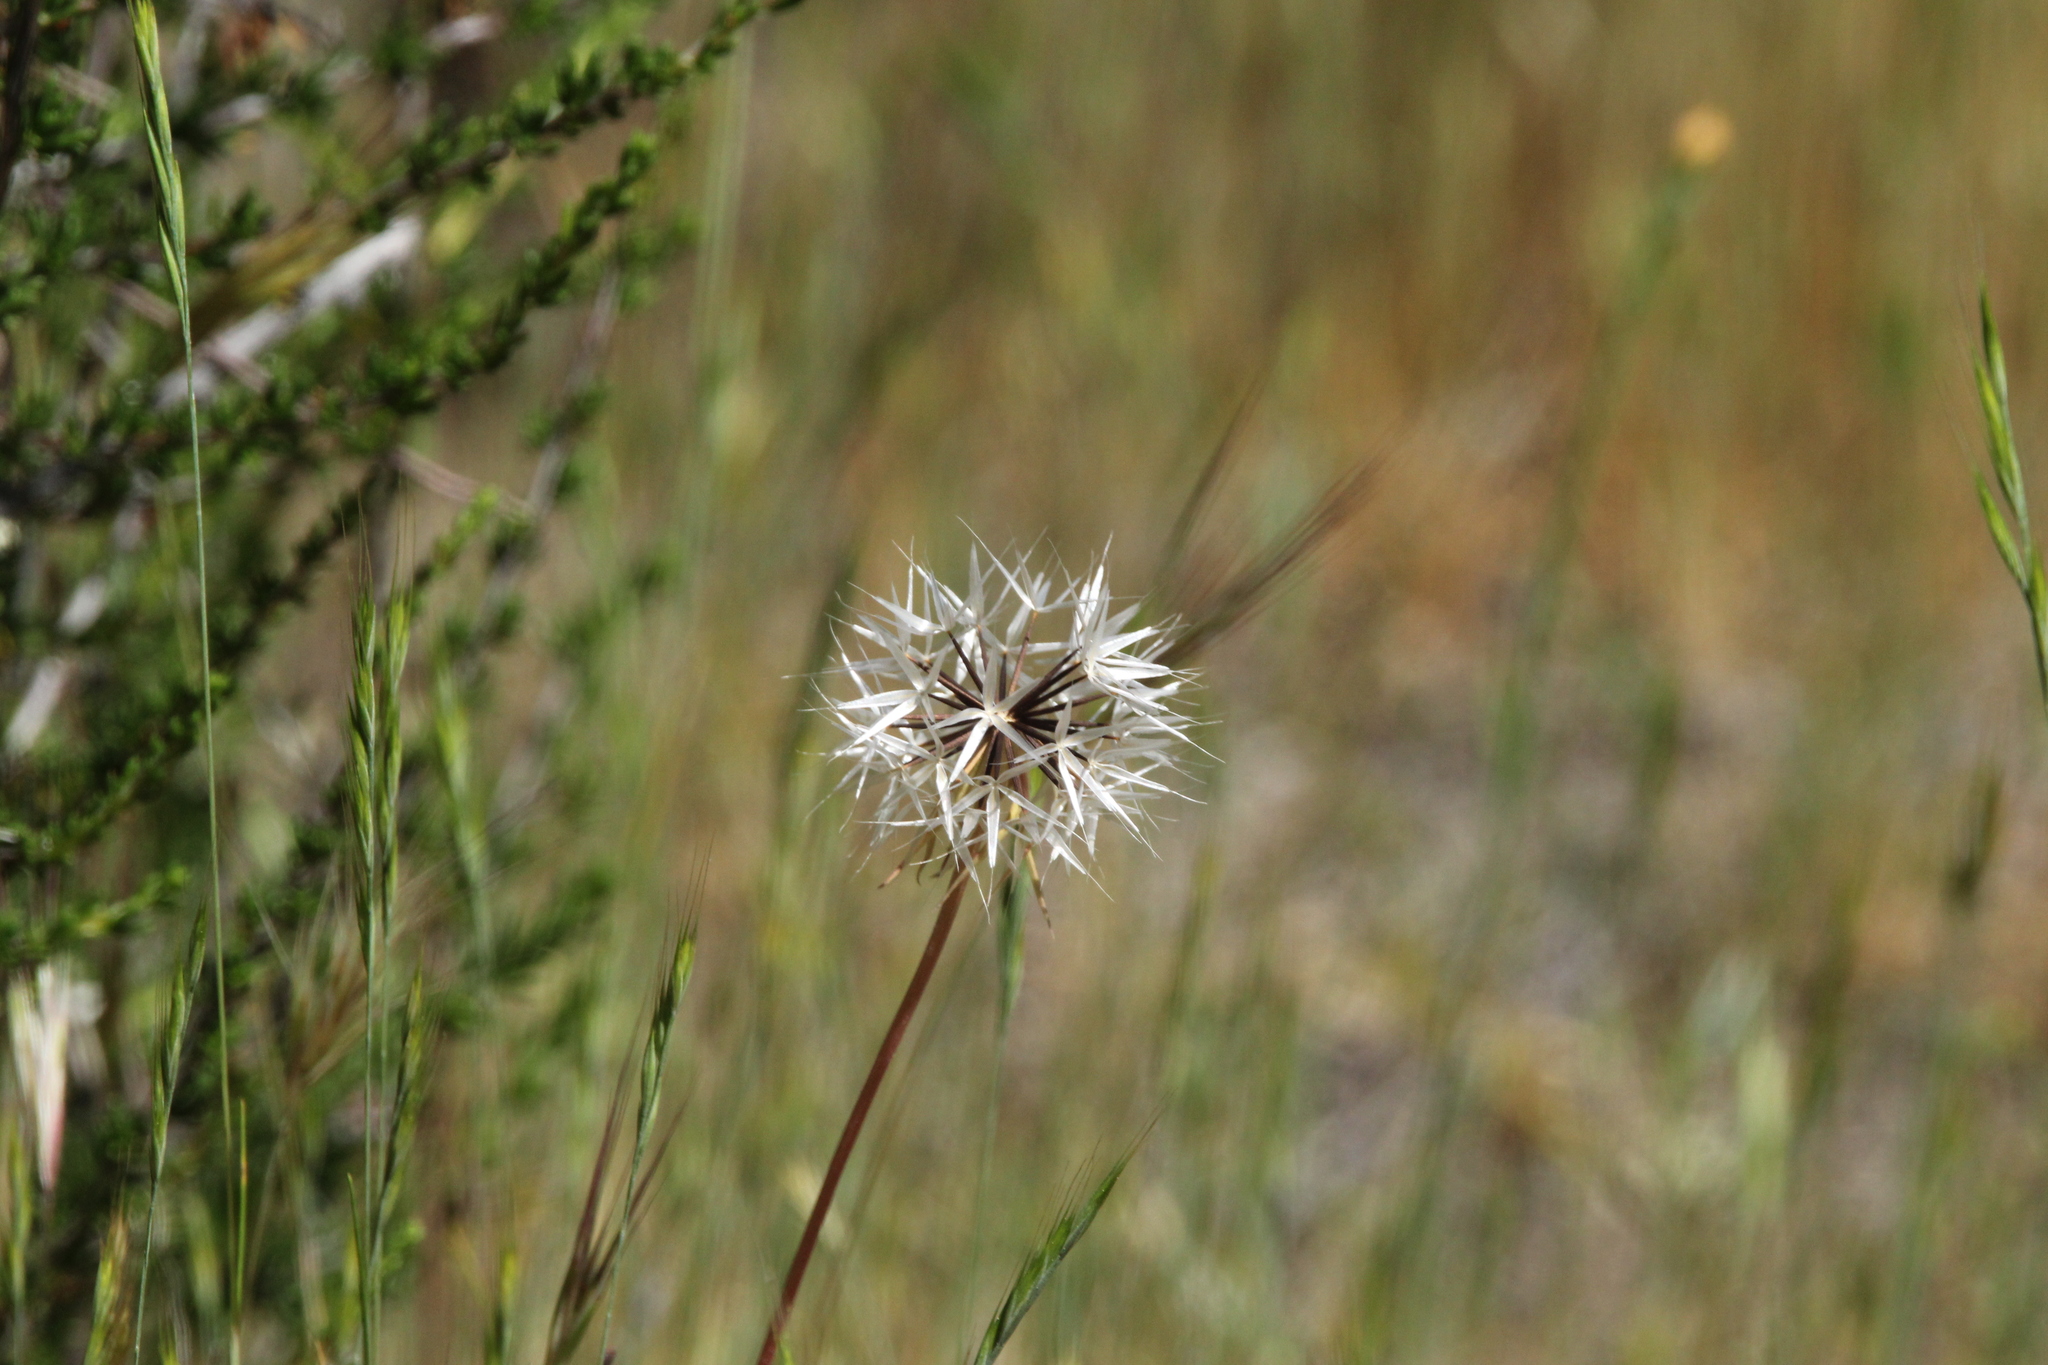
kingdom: Plantae
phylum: Tracheophyta
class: Magnoliopsida
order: Asterales
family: Asteraceae
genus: Microseris
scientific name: Microseris lindleyi
